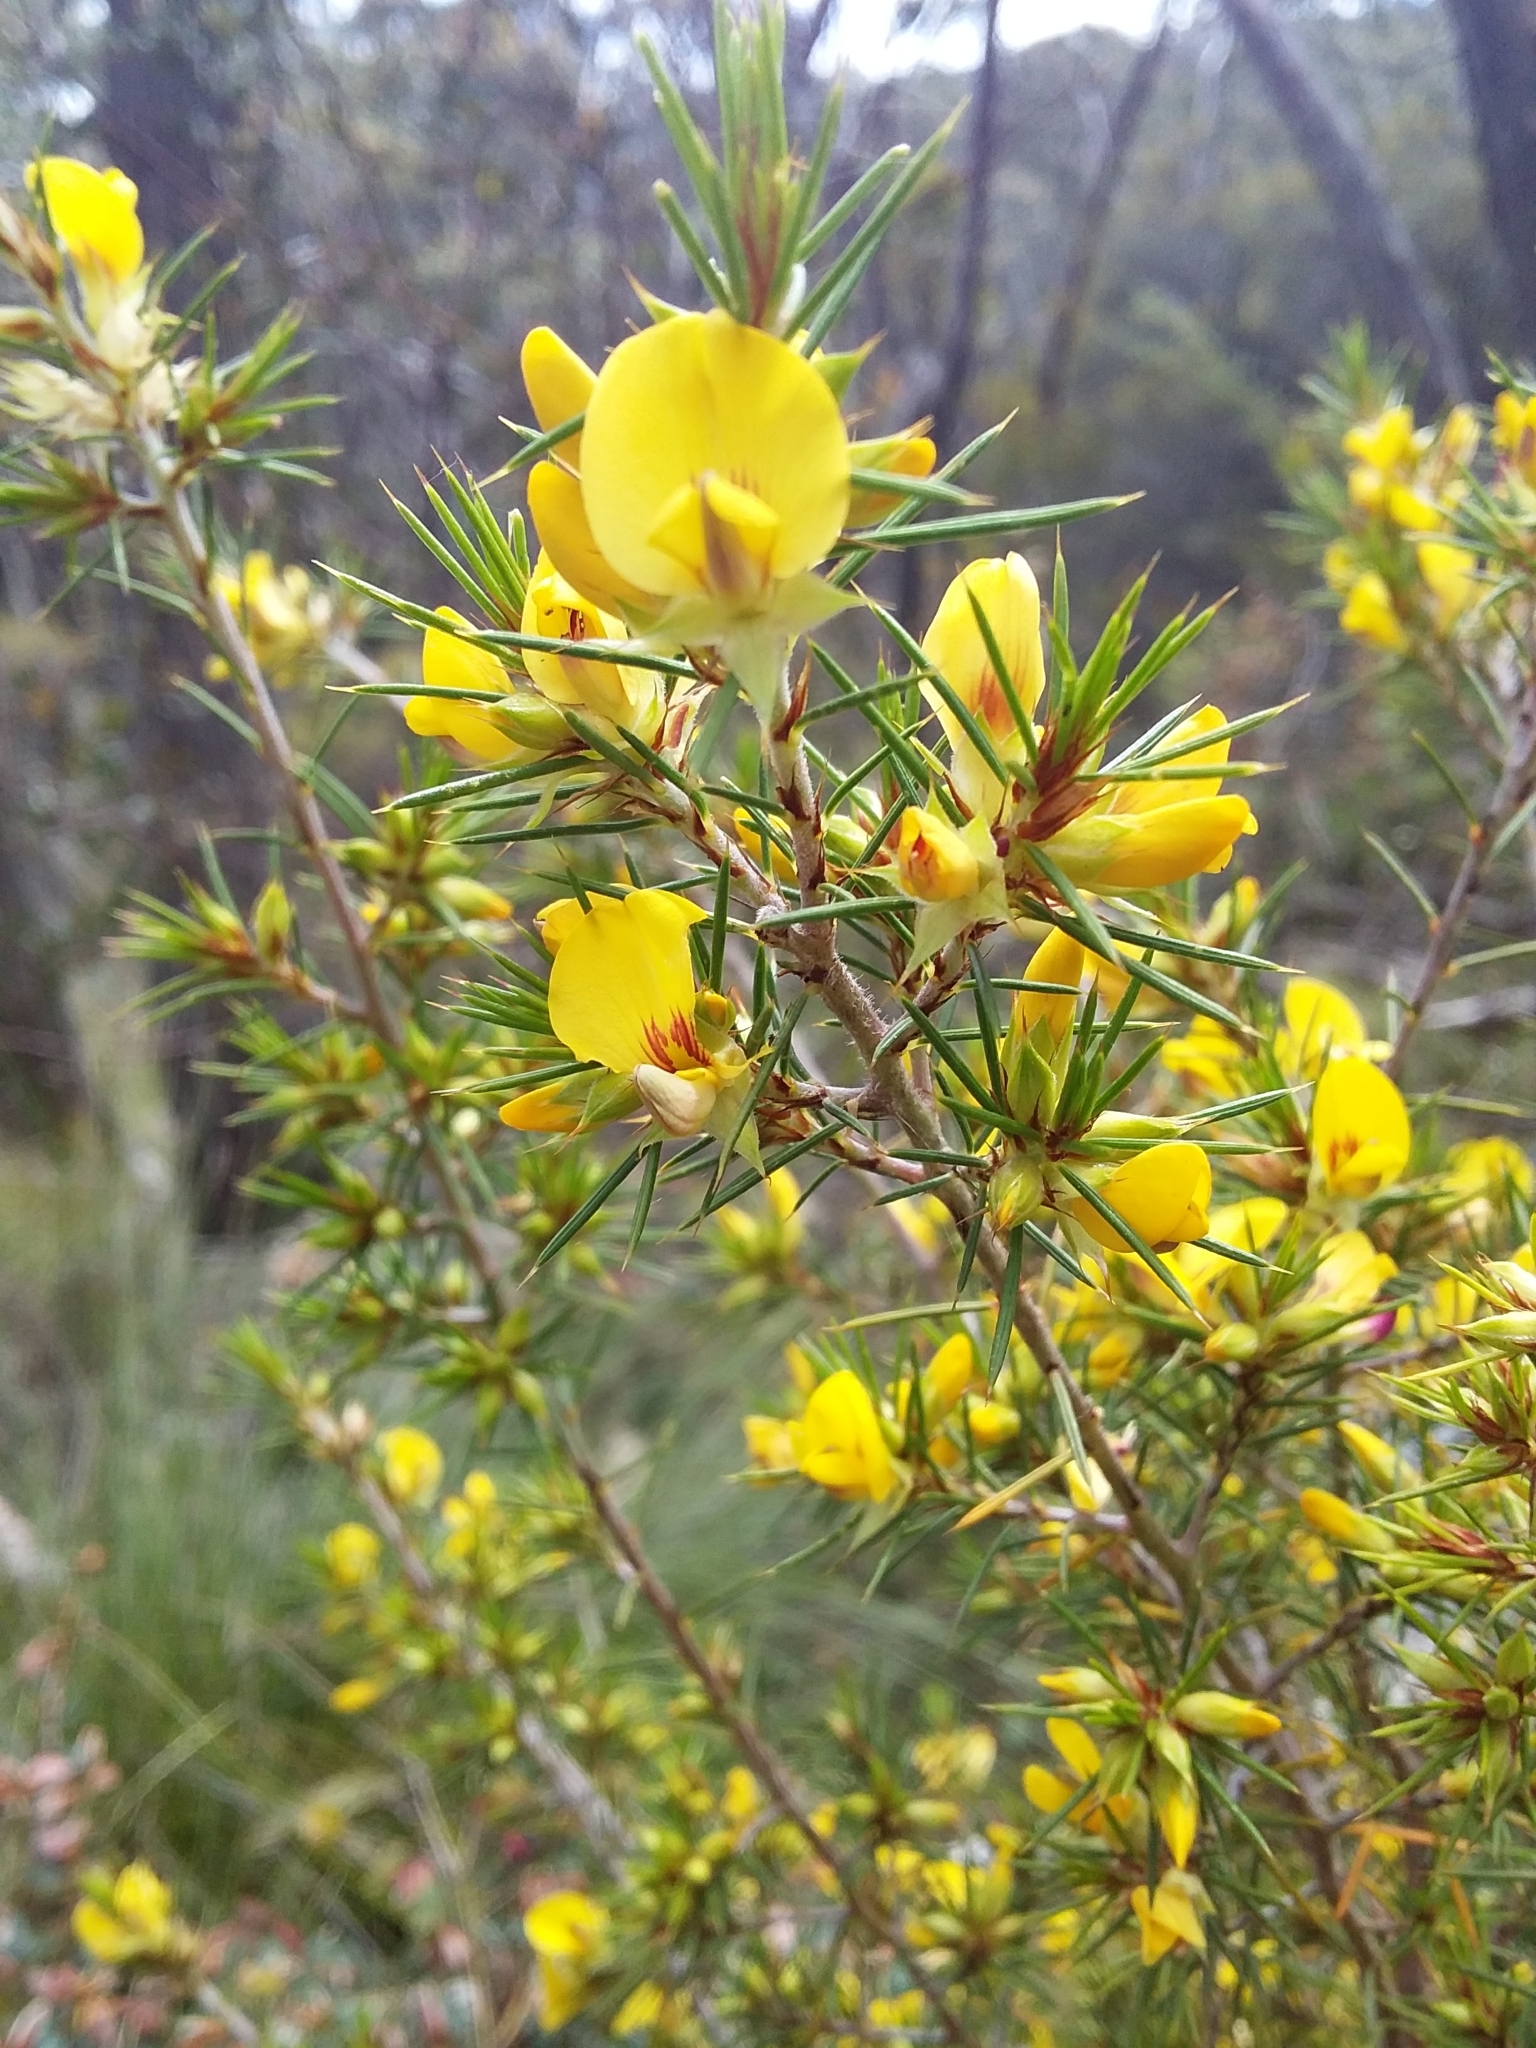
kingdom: Plantae
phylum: Tracheophyta
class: Magnoliopsida
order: Fabales
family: Fabaceae
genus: Pultenaea
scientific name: Pultenaea acerosa
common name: Bristly bush-pea
